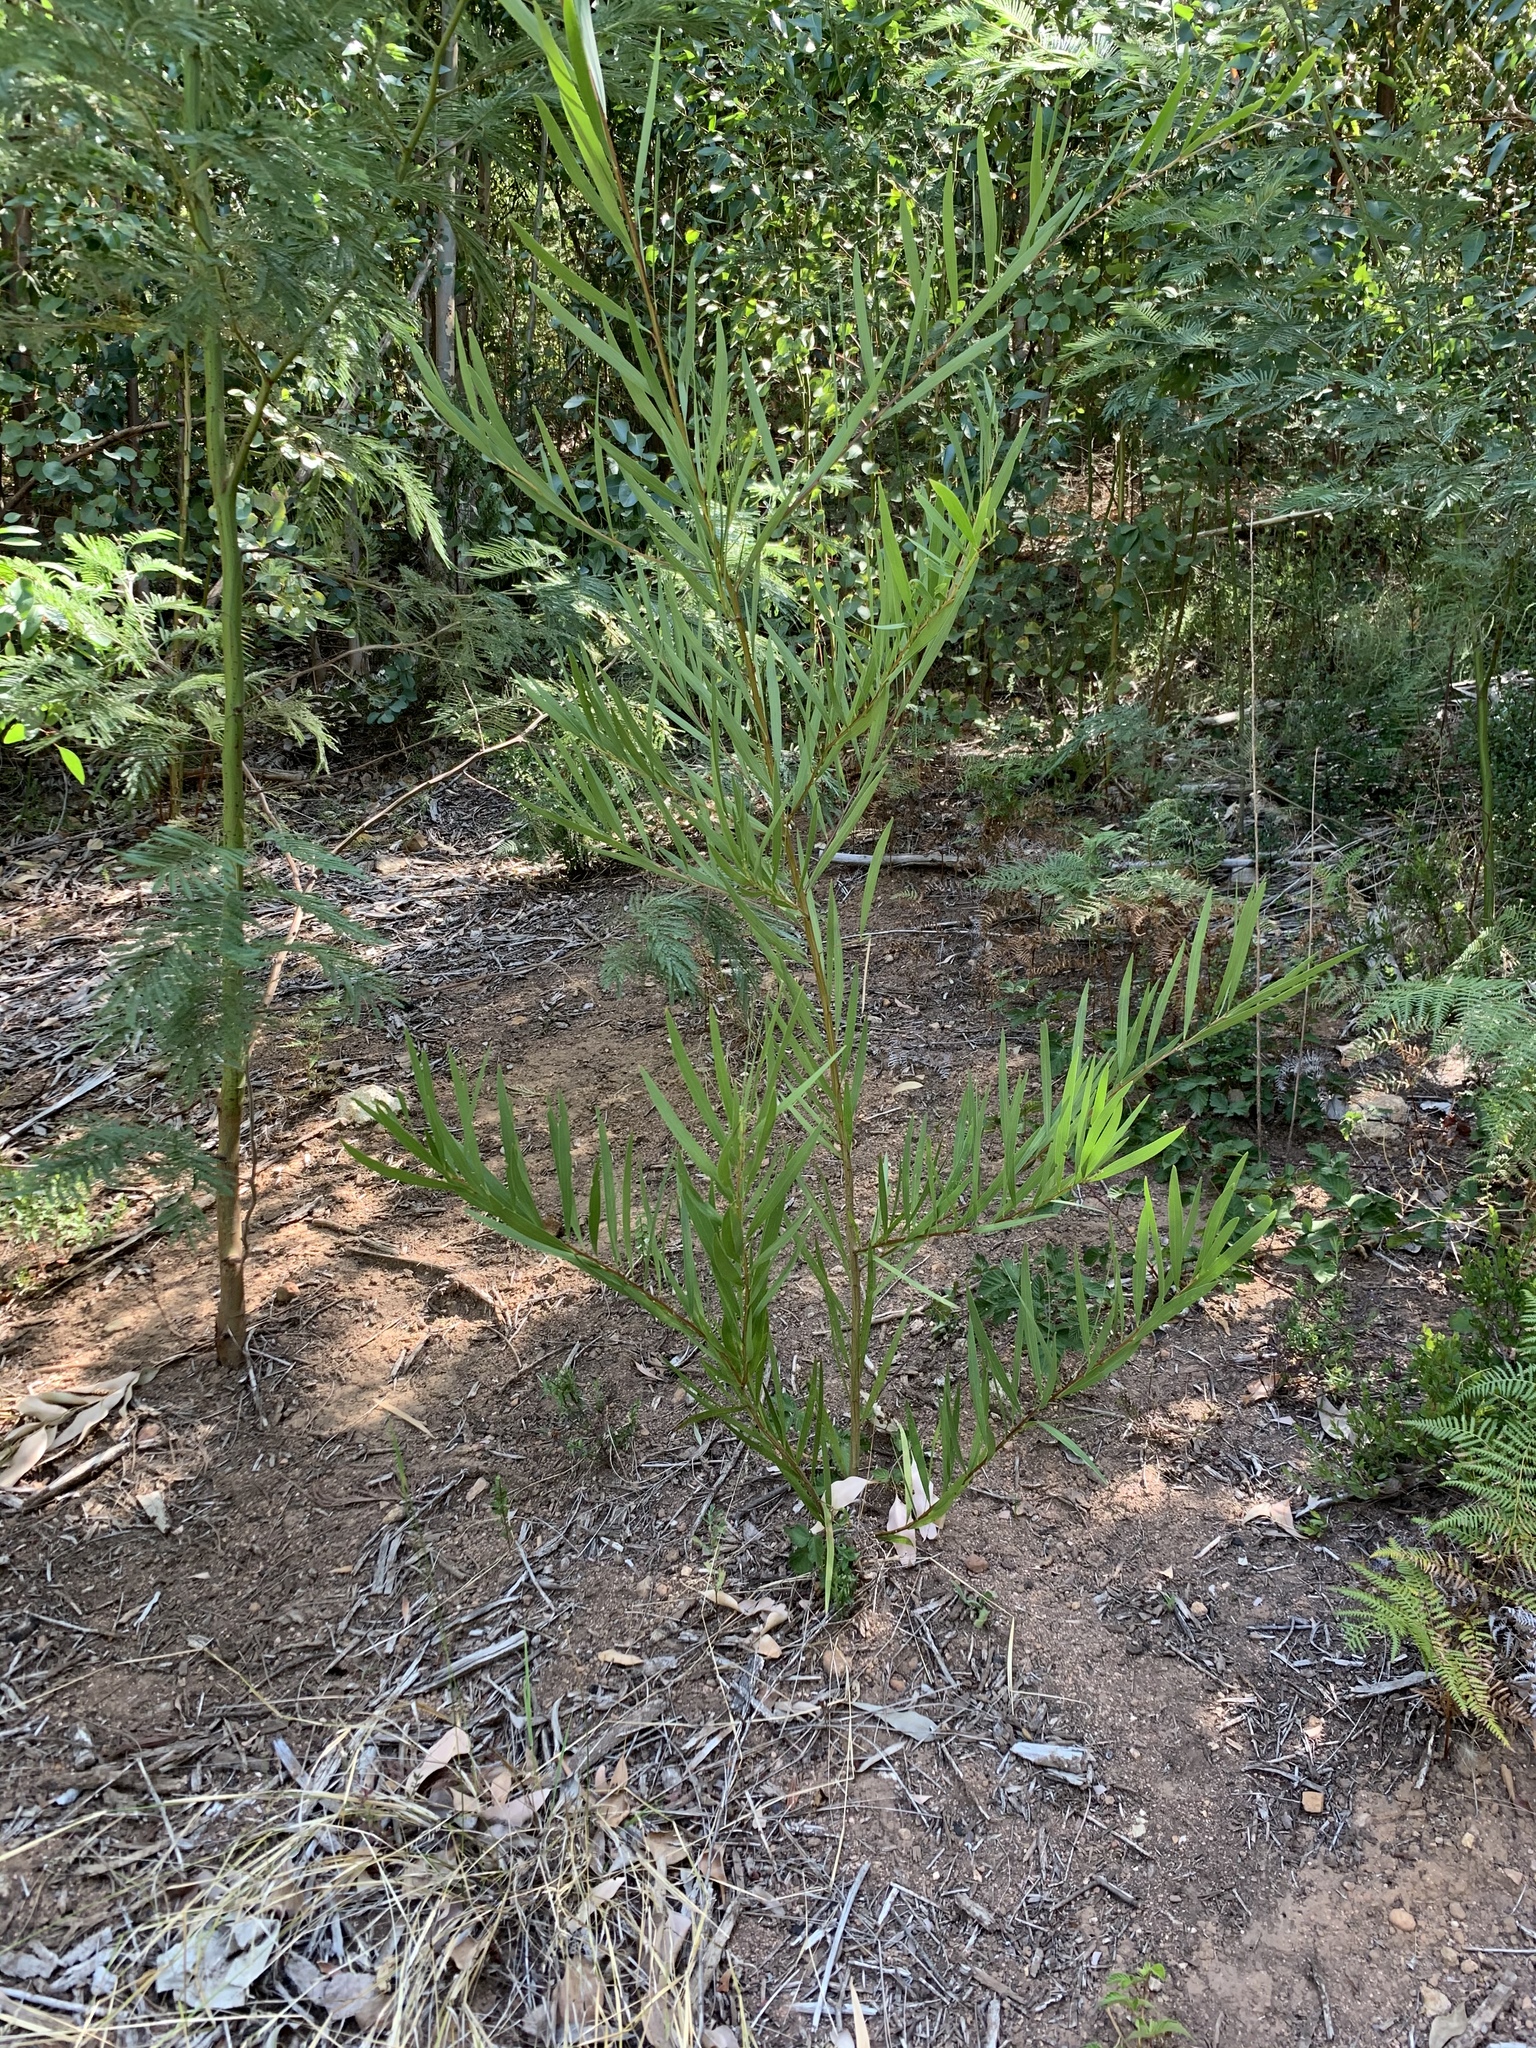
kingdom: Plantae
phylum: Tracheophyta
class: Magnoliopsida
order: Fabales
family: Fabaceae
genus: Acacia
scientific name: Acacia longifolia
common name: Sydney golden wattle
